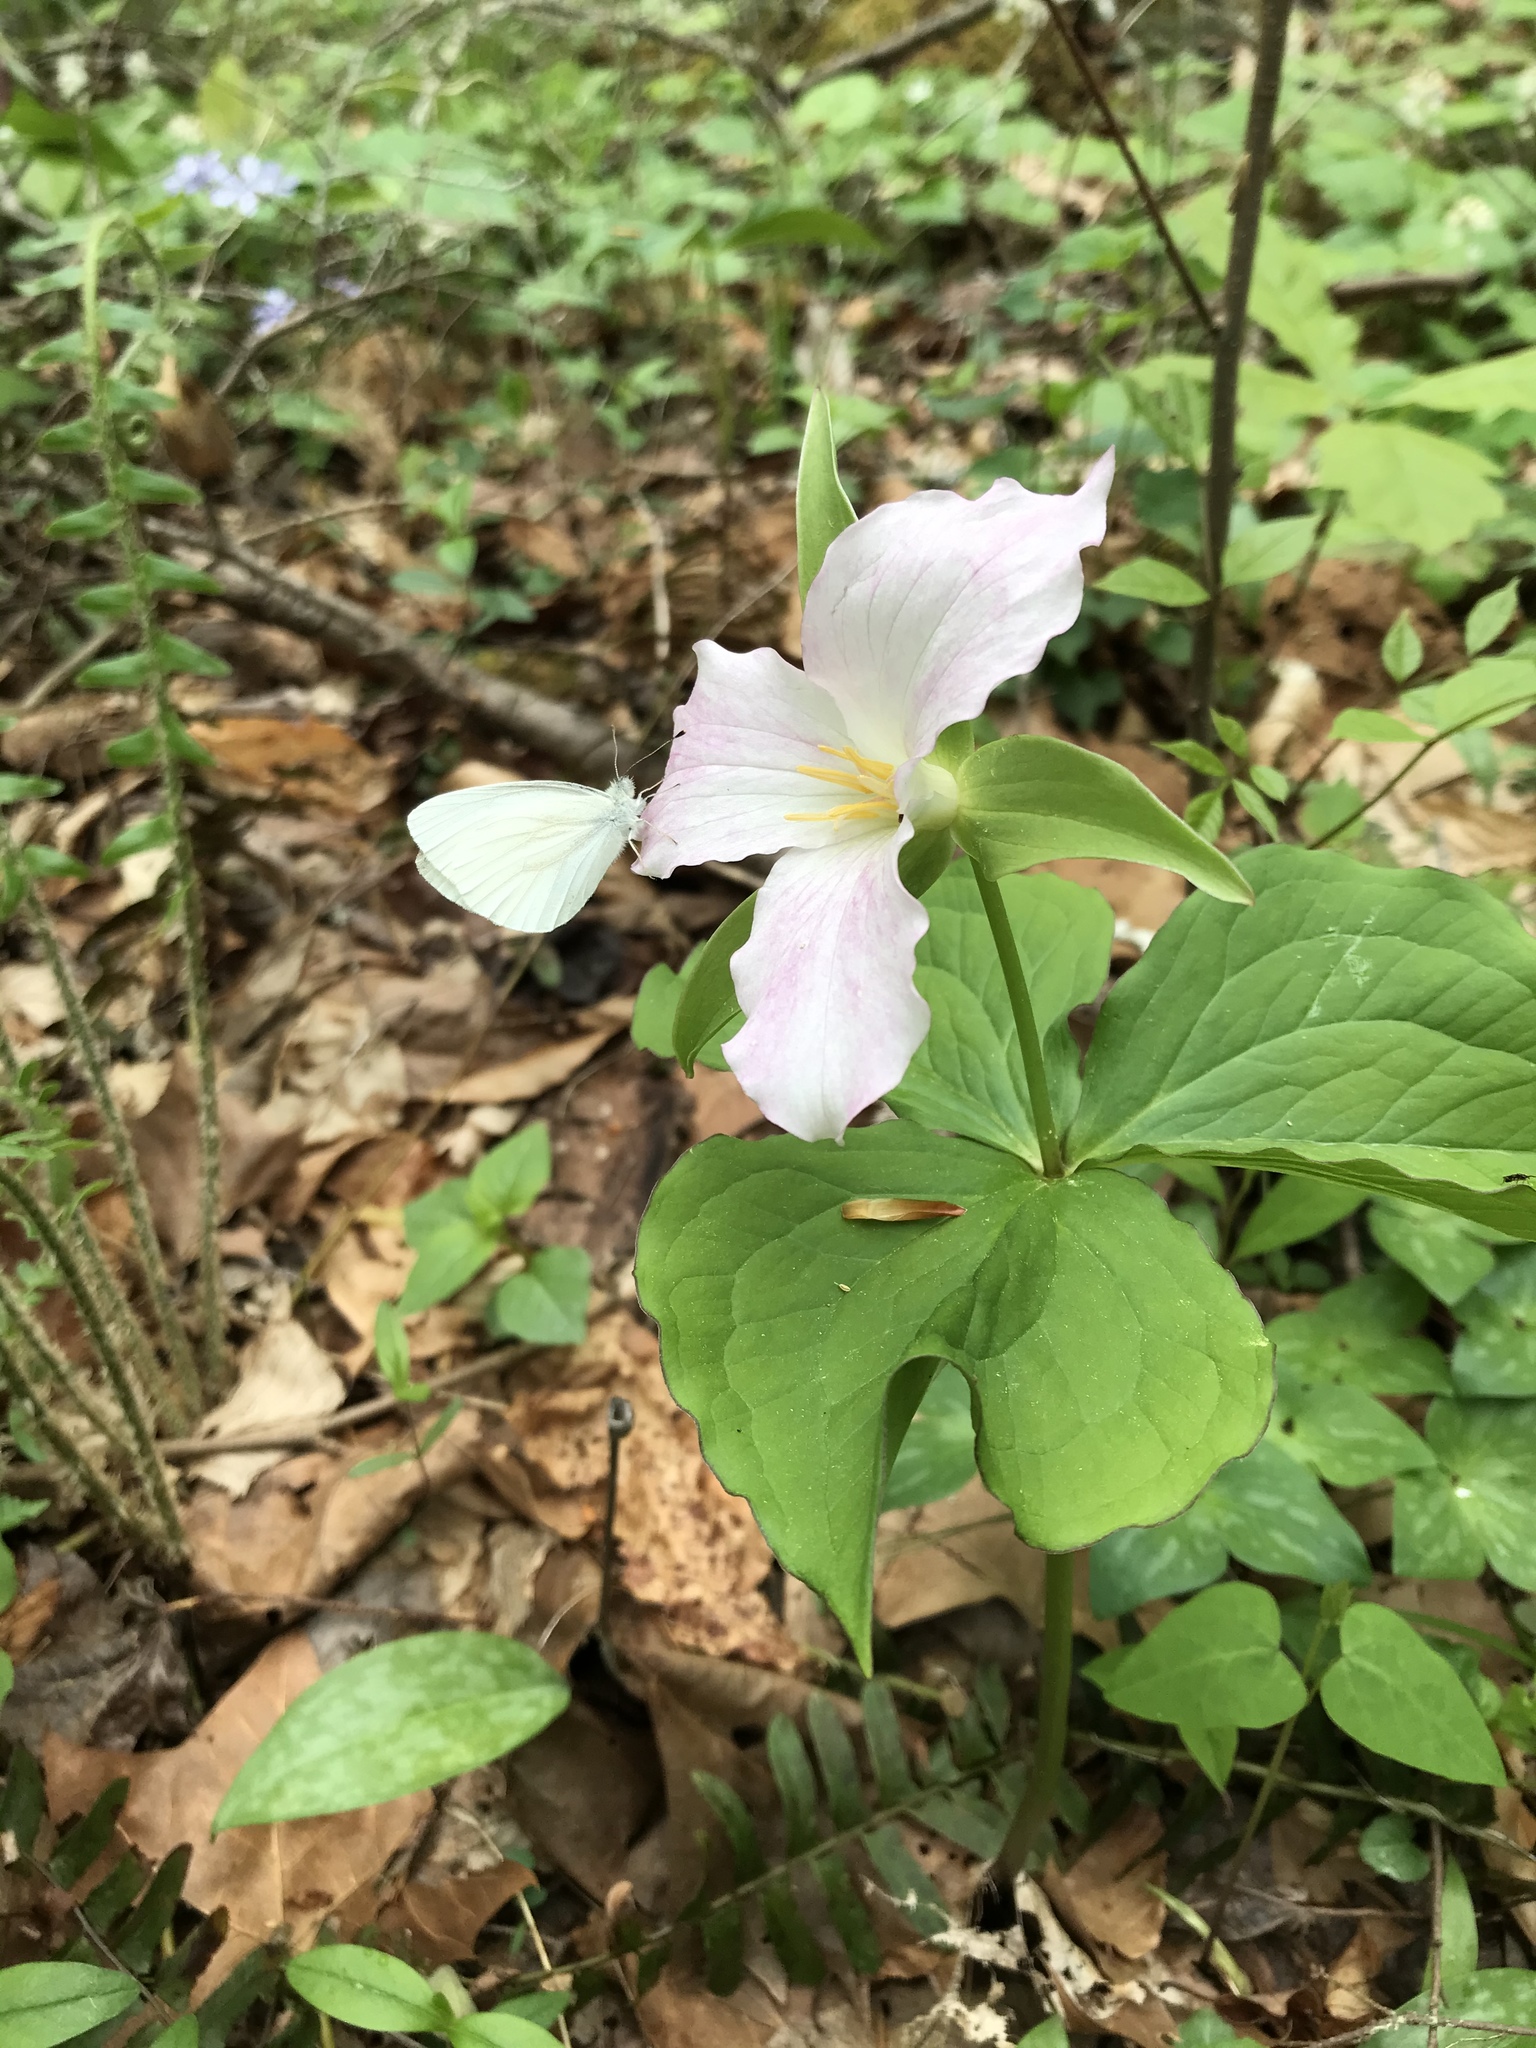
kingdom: Plantae
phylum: Tracheophyta
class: Liliopsida
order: Liliales
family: Melanthiaceae
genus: Trillium
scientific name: Trillium grandiflorum
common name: Great white trillium
